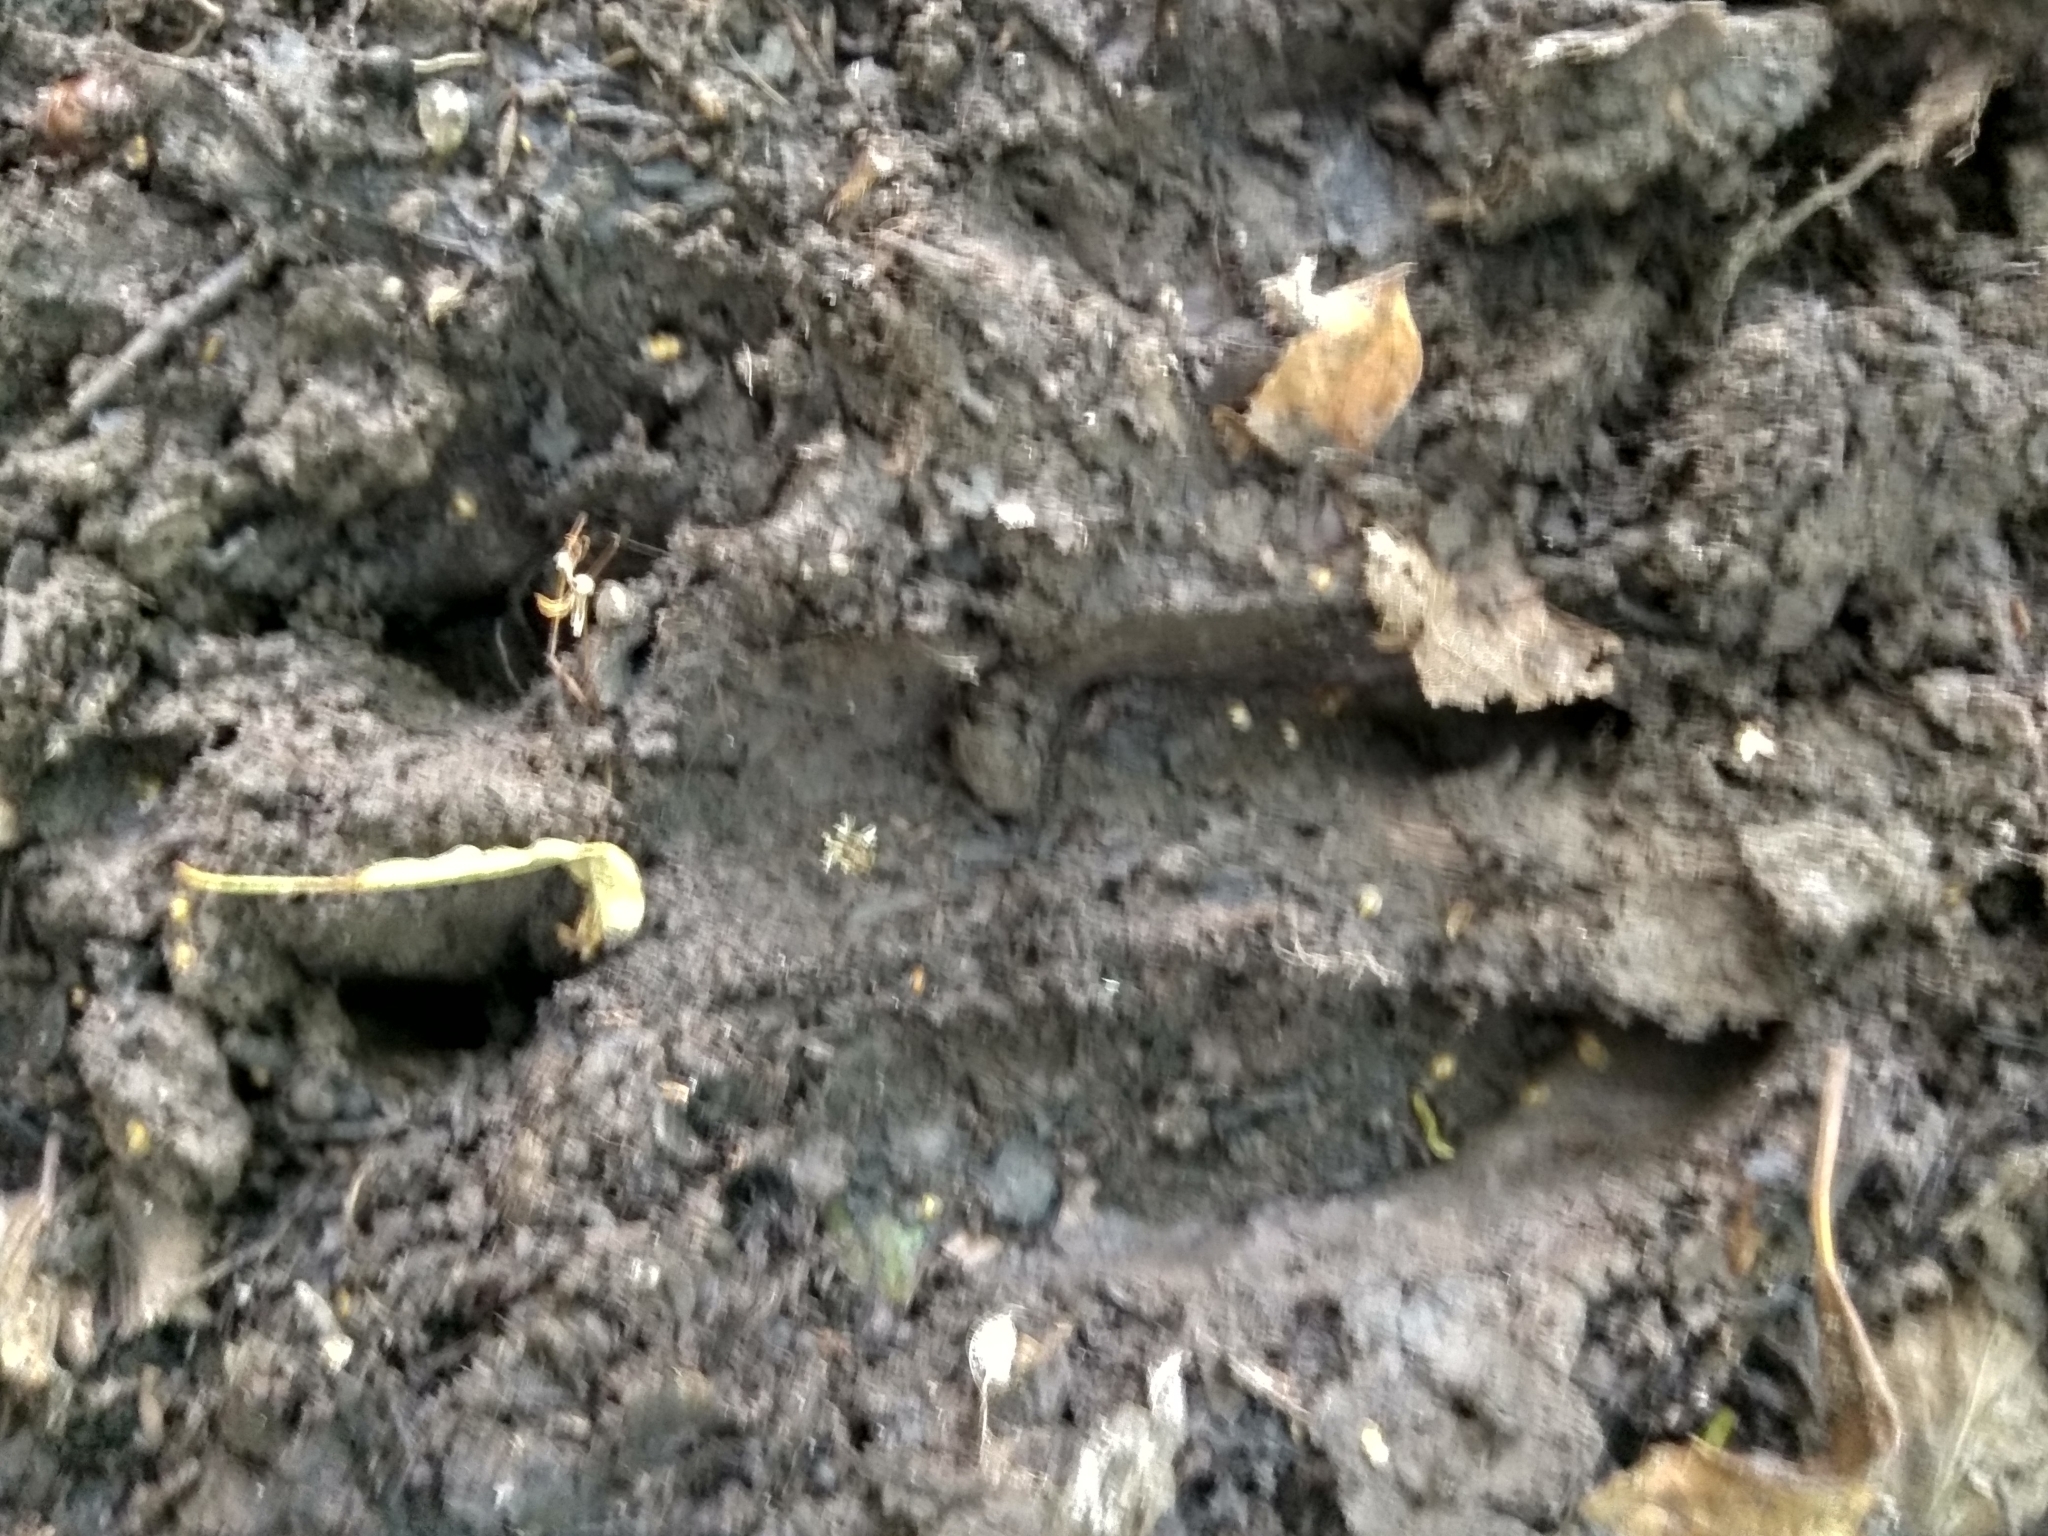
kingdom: Animalia
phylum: Chordata
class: Mammalia
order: Artiodactyla
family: Suidae
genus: Sus
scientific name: Sus scrofa
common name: Wild boar
